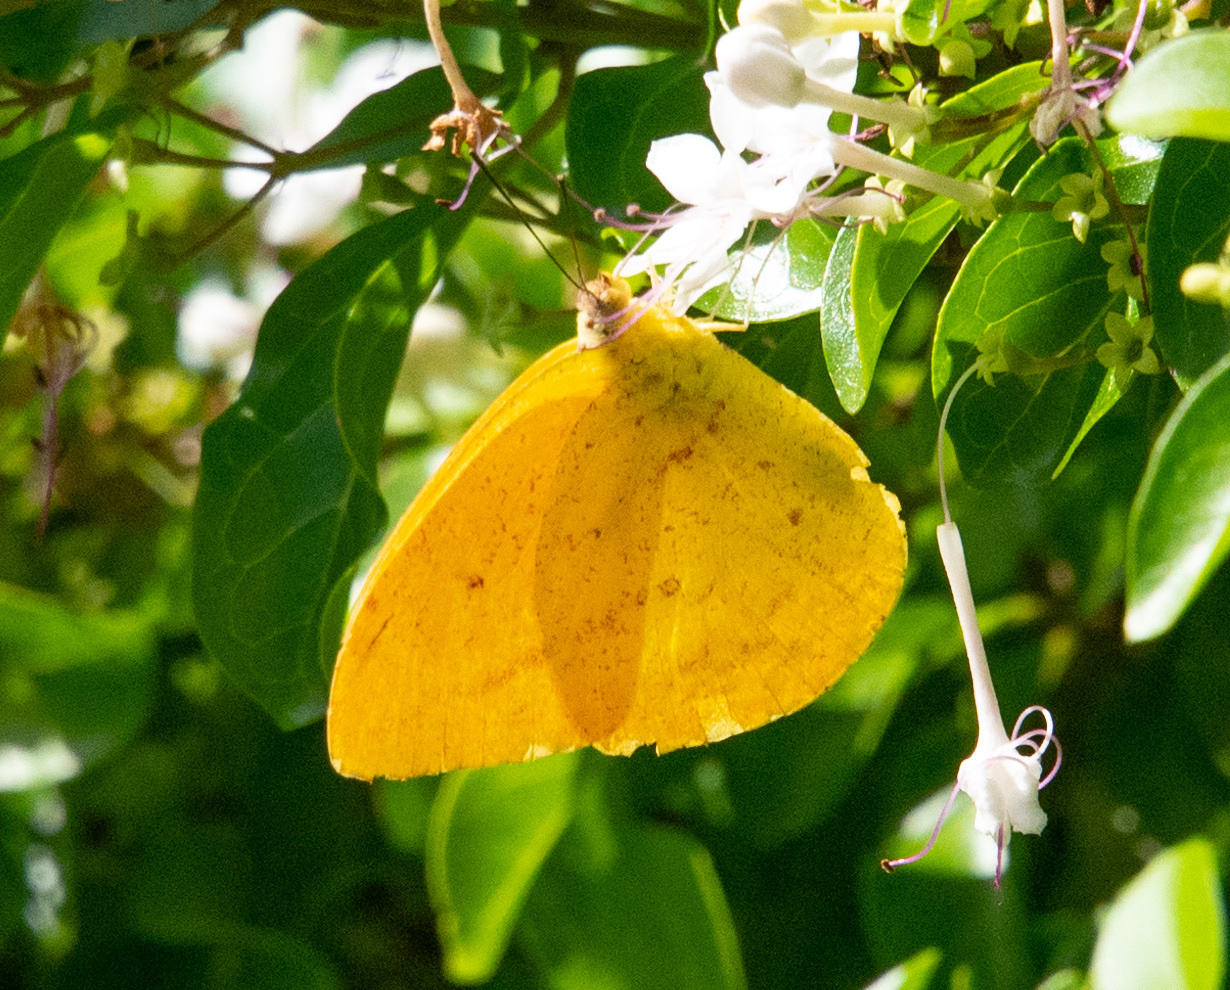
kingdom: Animalia
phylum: Arthropoda
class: Insecta
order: Lepidoptera
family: Pieridae
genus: Phoebis
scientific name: Phoebis agarithe
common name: Large orange sulphur
